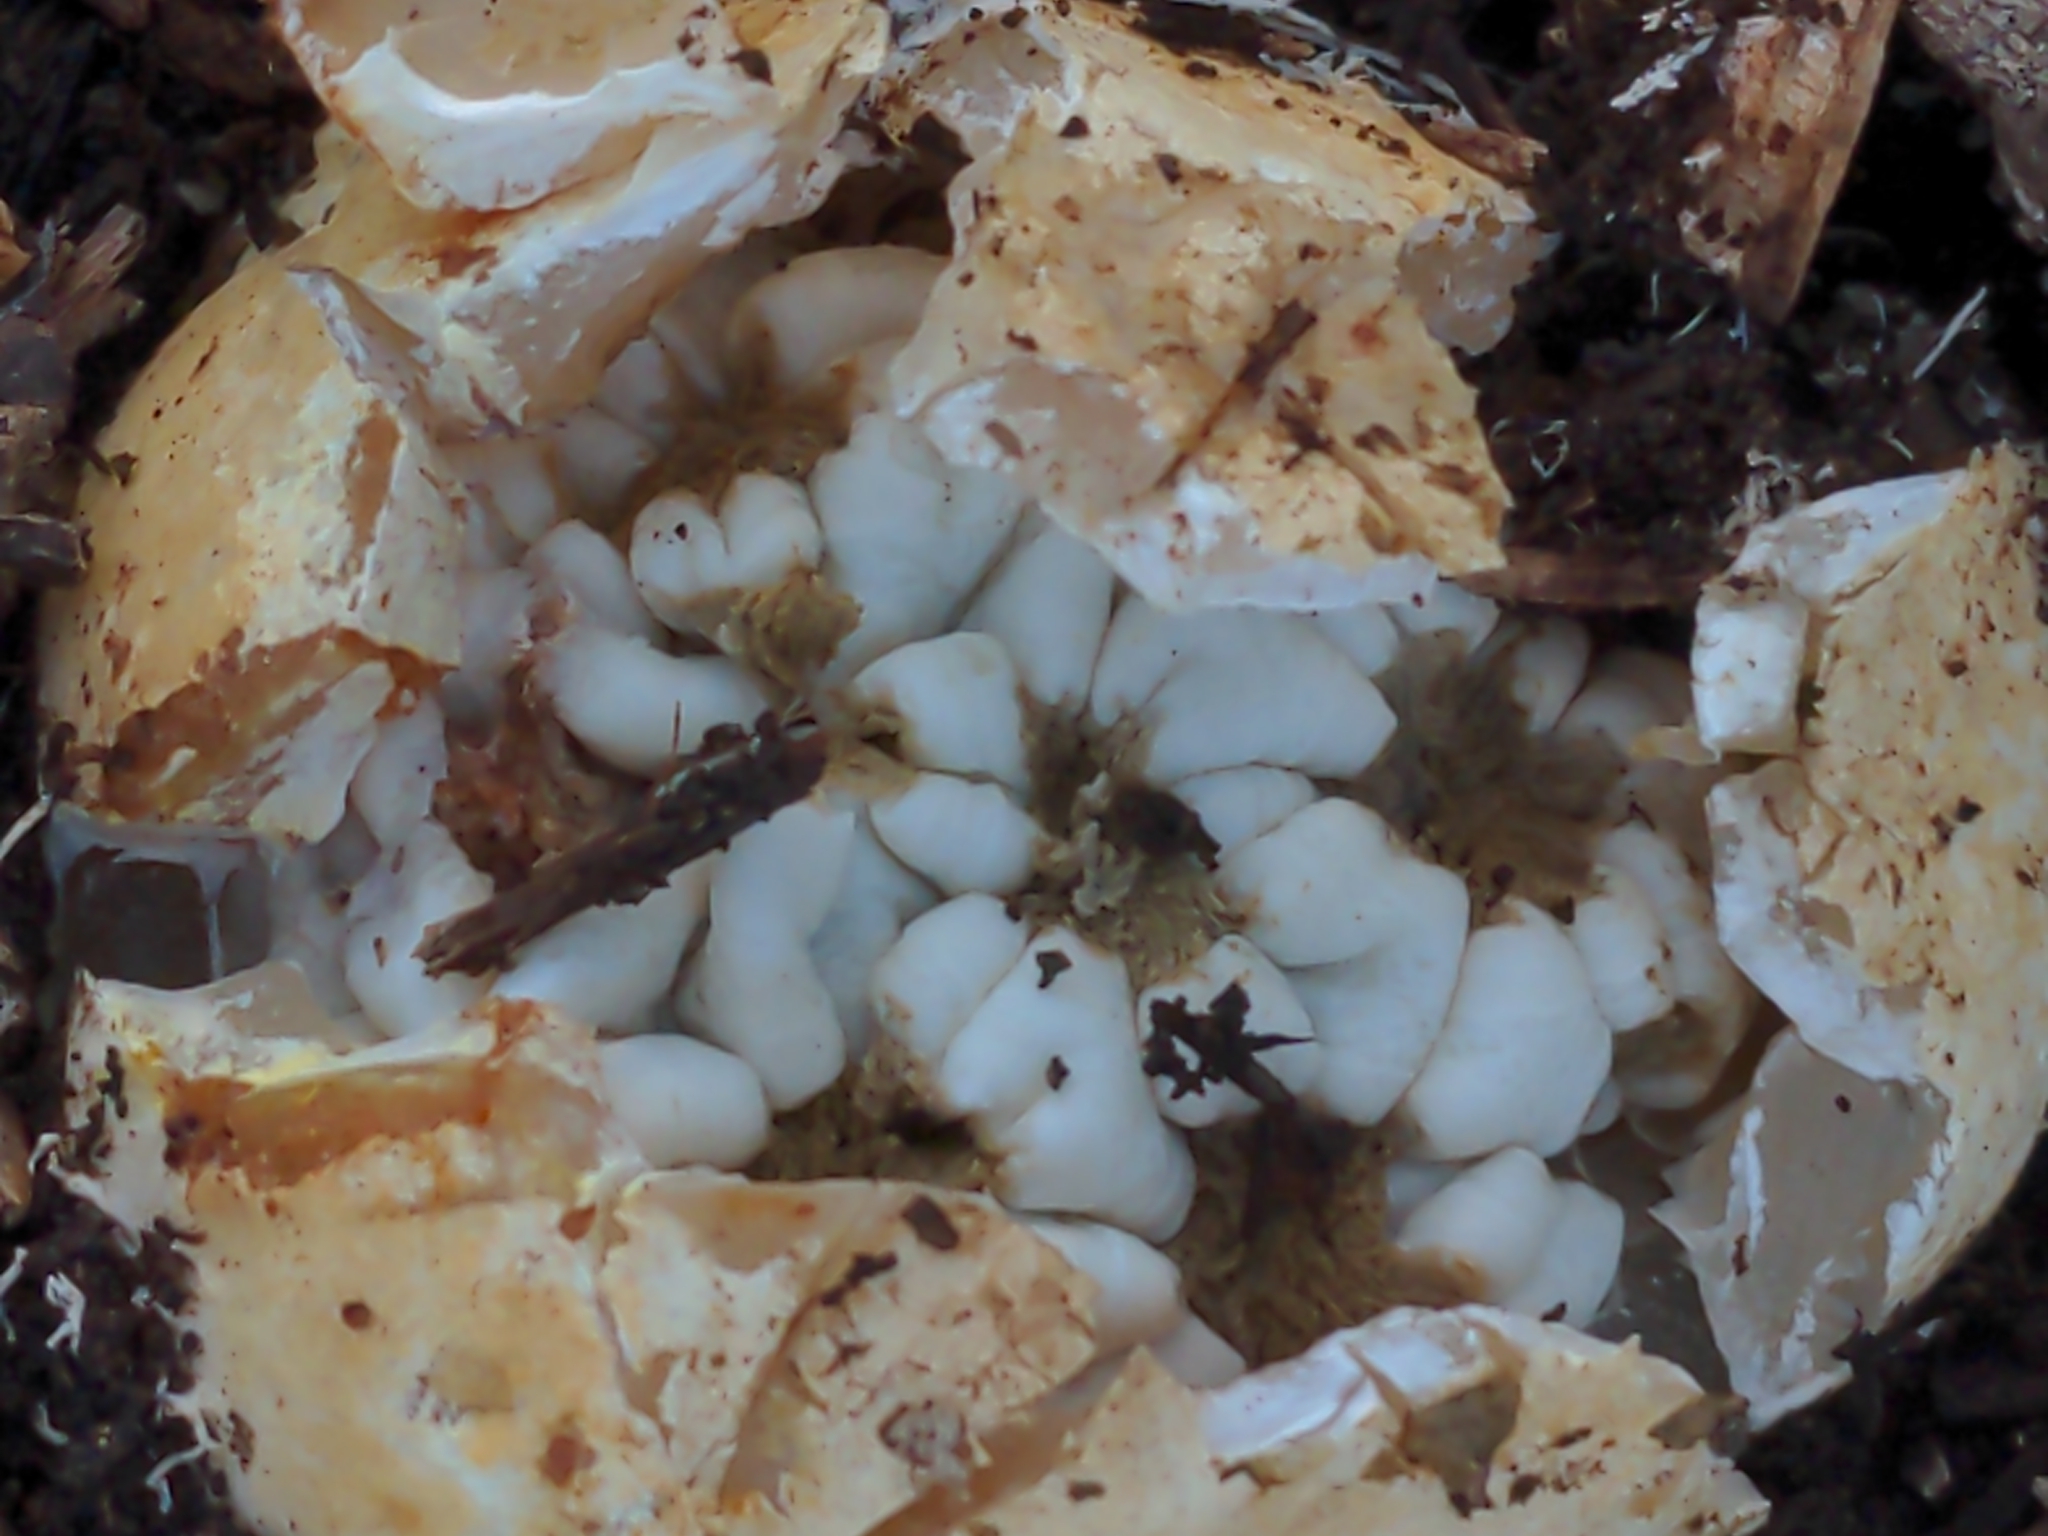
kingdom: Fungi
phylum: Basidiomycota
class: Agaricomycetes
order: Phallales
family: Phallaceae
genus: Ileodictyon
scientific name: Ileodictyon gracile
